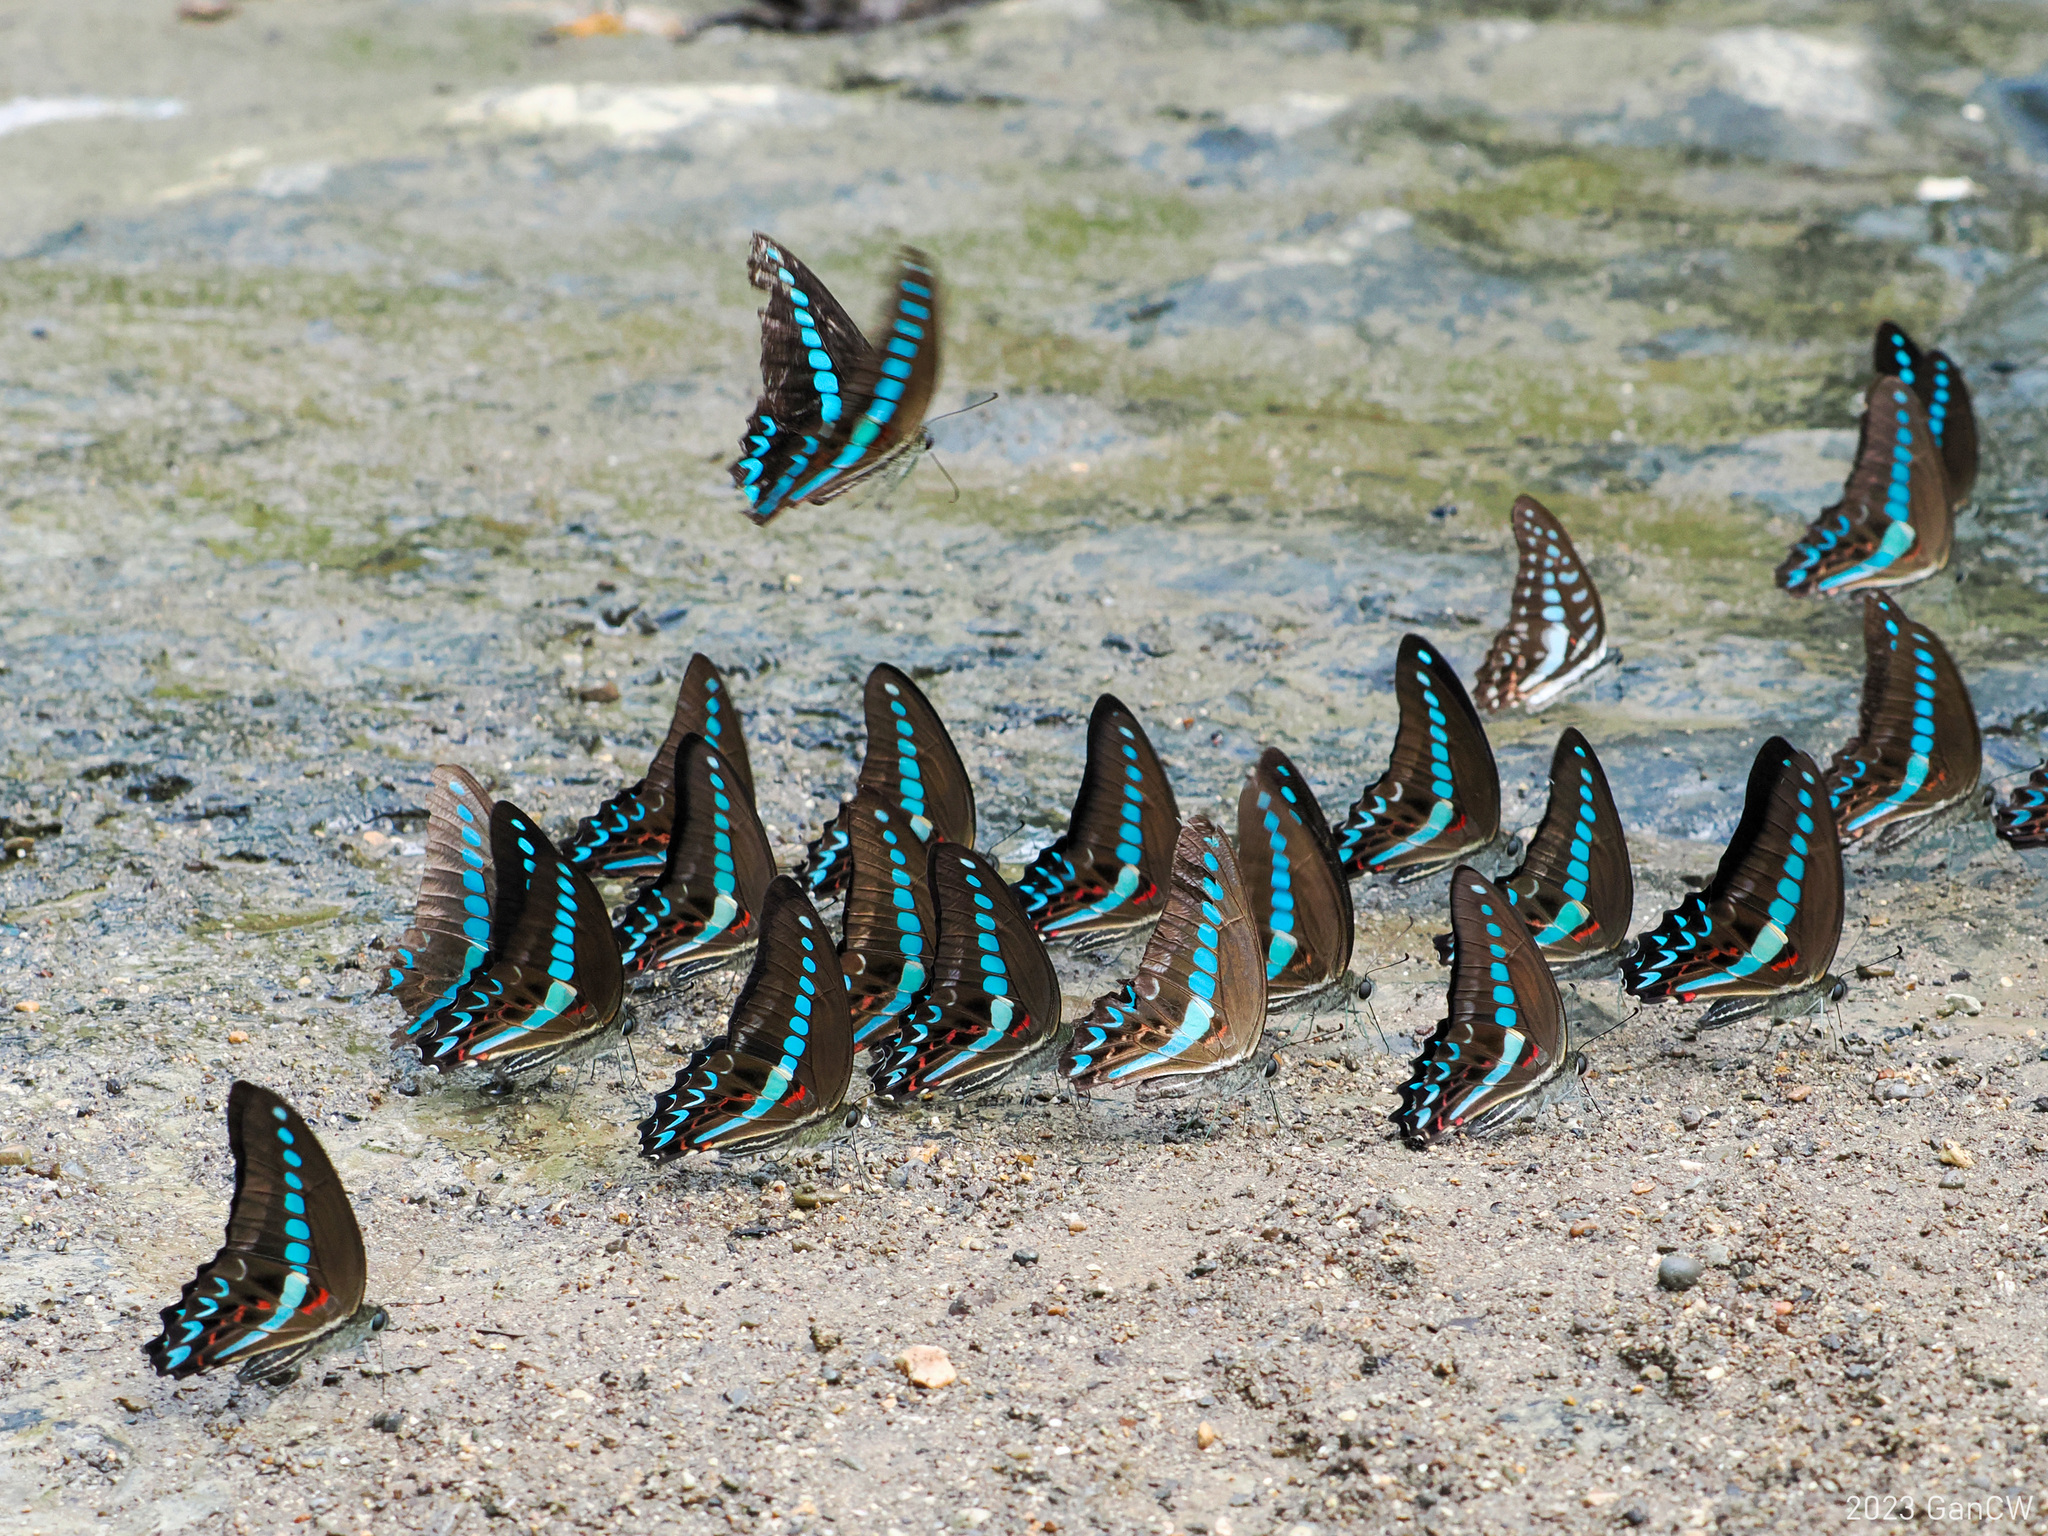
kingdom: Animalia
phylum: Arthropoda
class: Insecta
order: Lepidoptera
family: Papilionidae
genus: Graphium
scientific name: Graphium milon
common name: Milon's swallowtail
